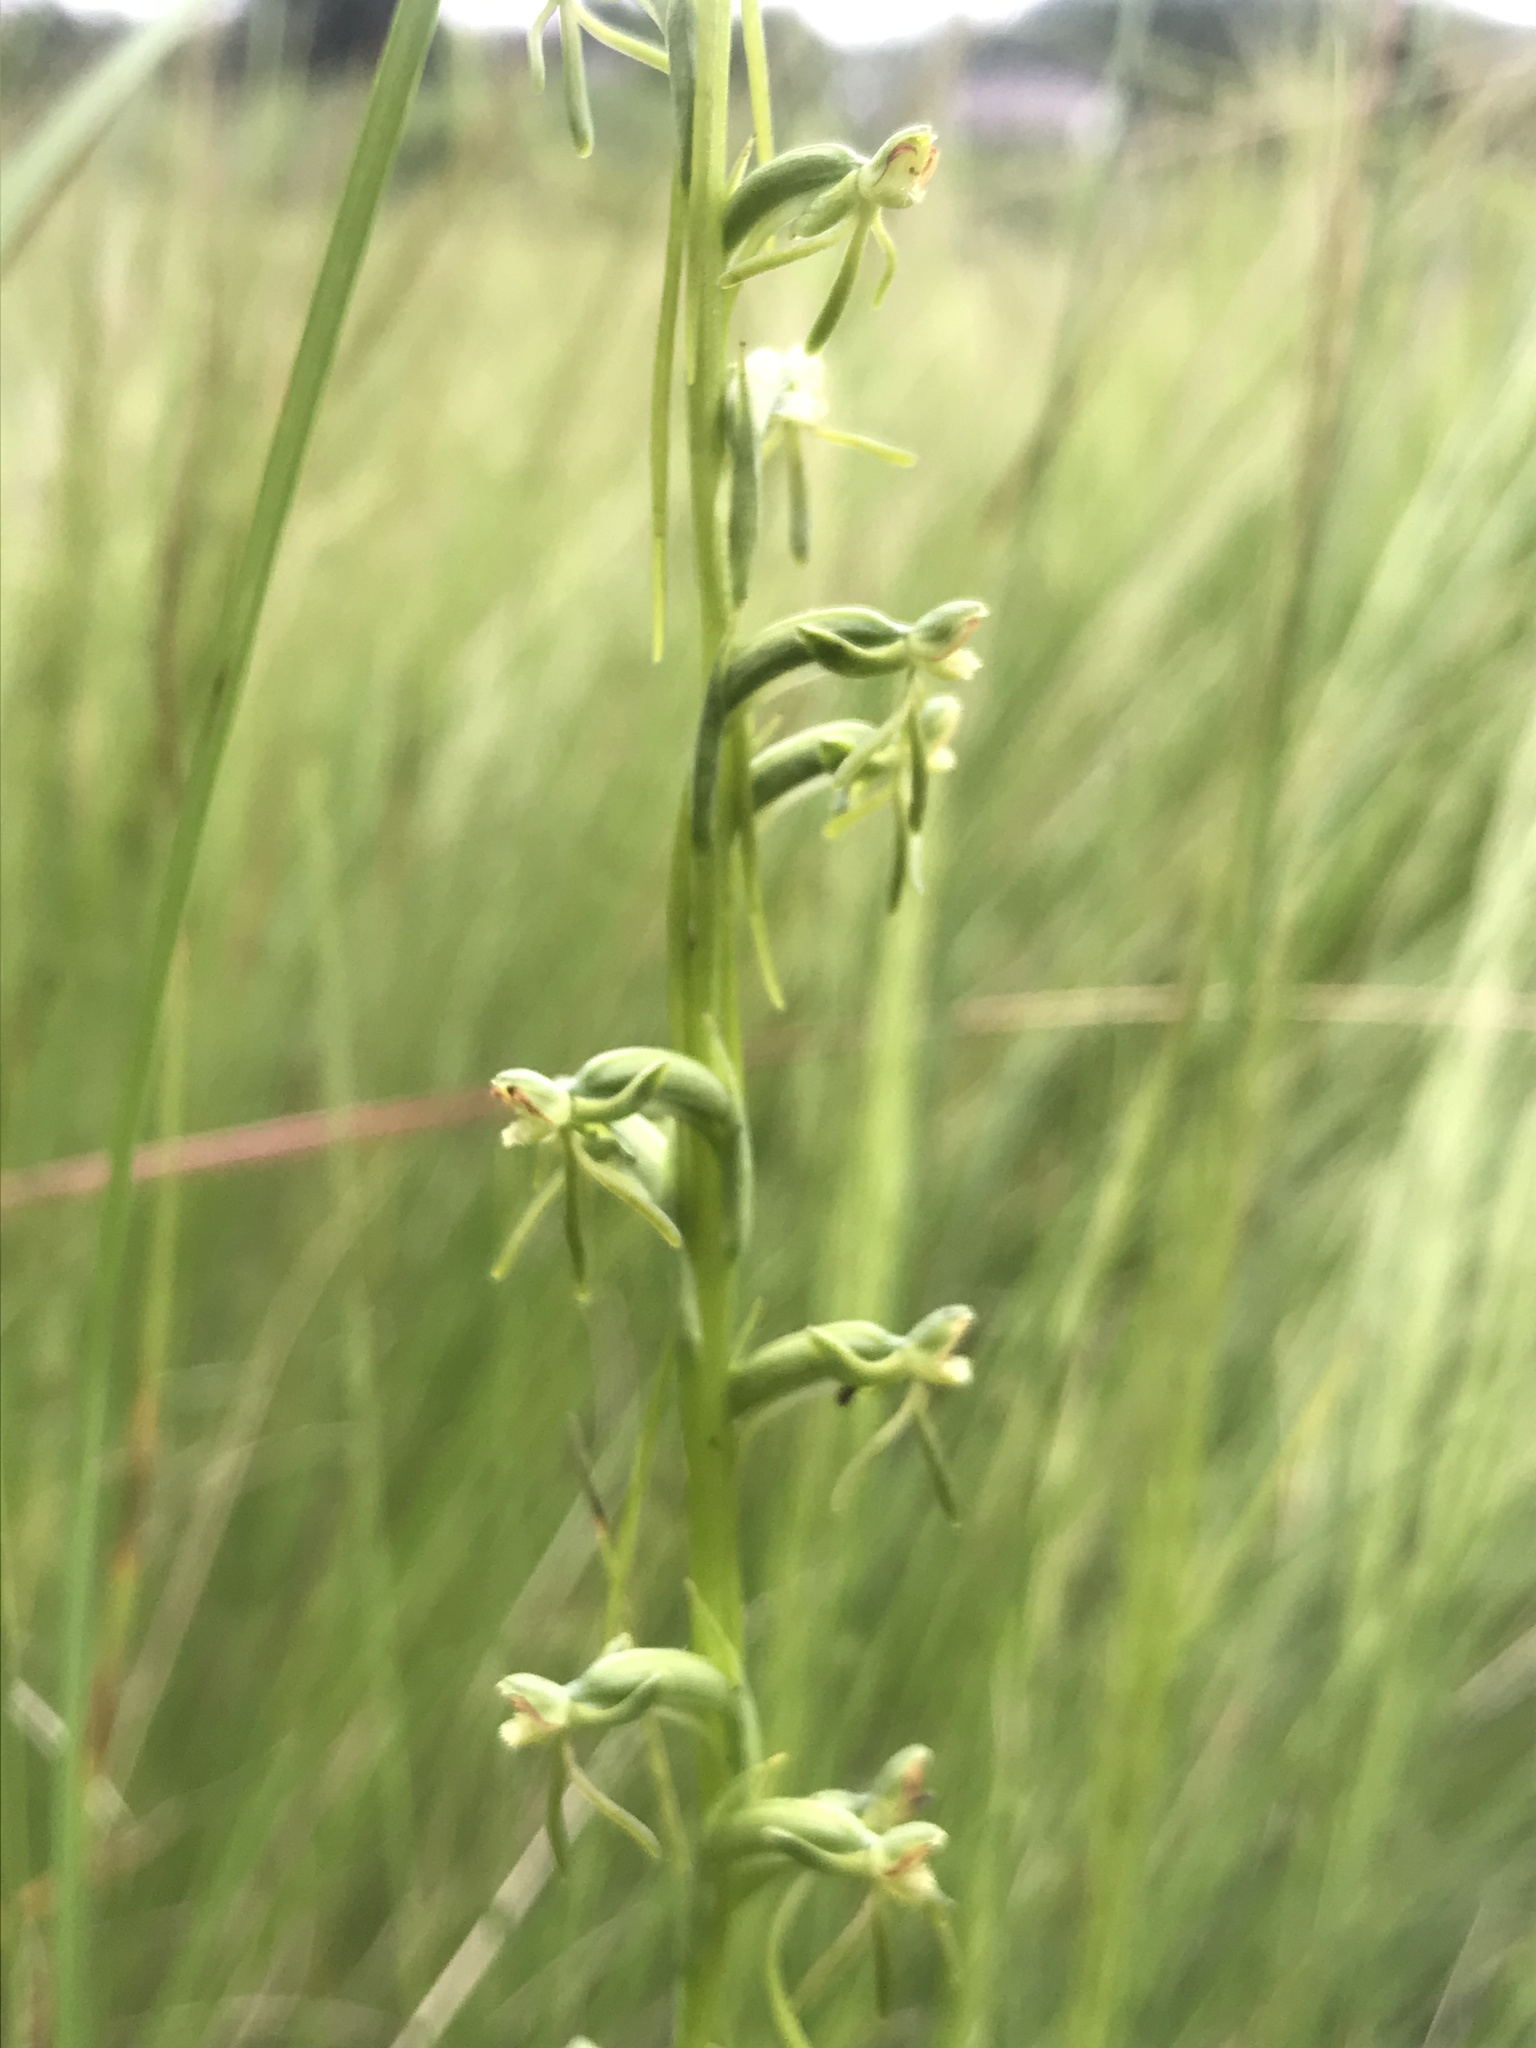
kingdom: Plantae
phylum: Tracheophyta
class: Liliopsida
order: Asparagales
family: Orchidaceae
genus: Habenaria
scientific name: Habenaria filicornis
